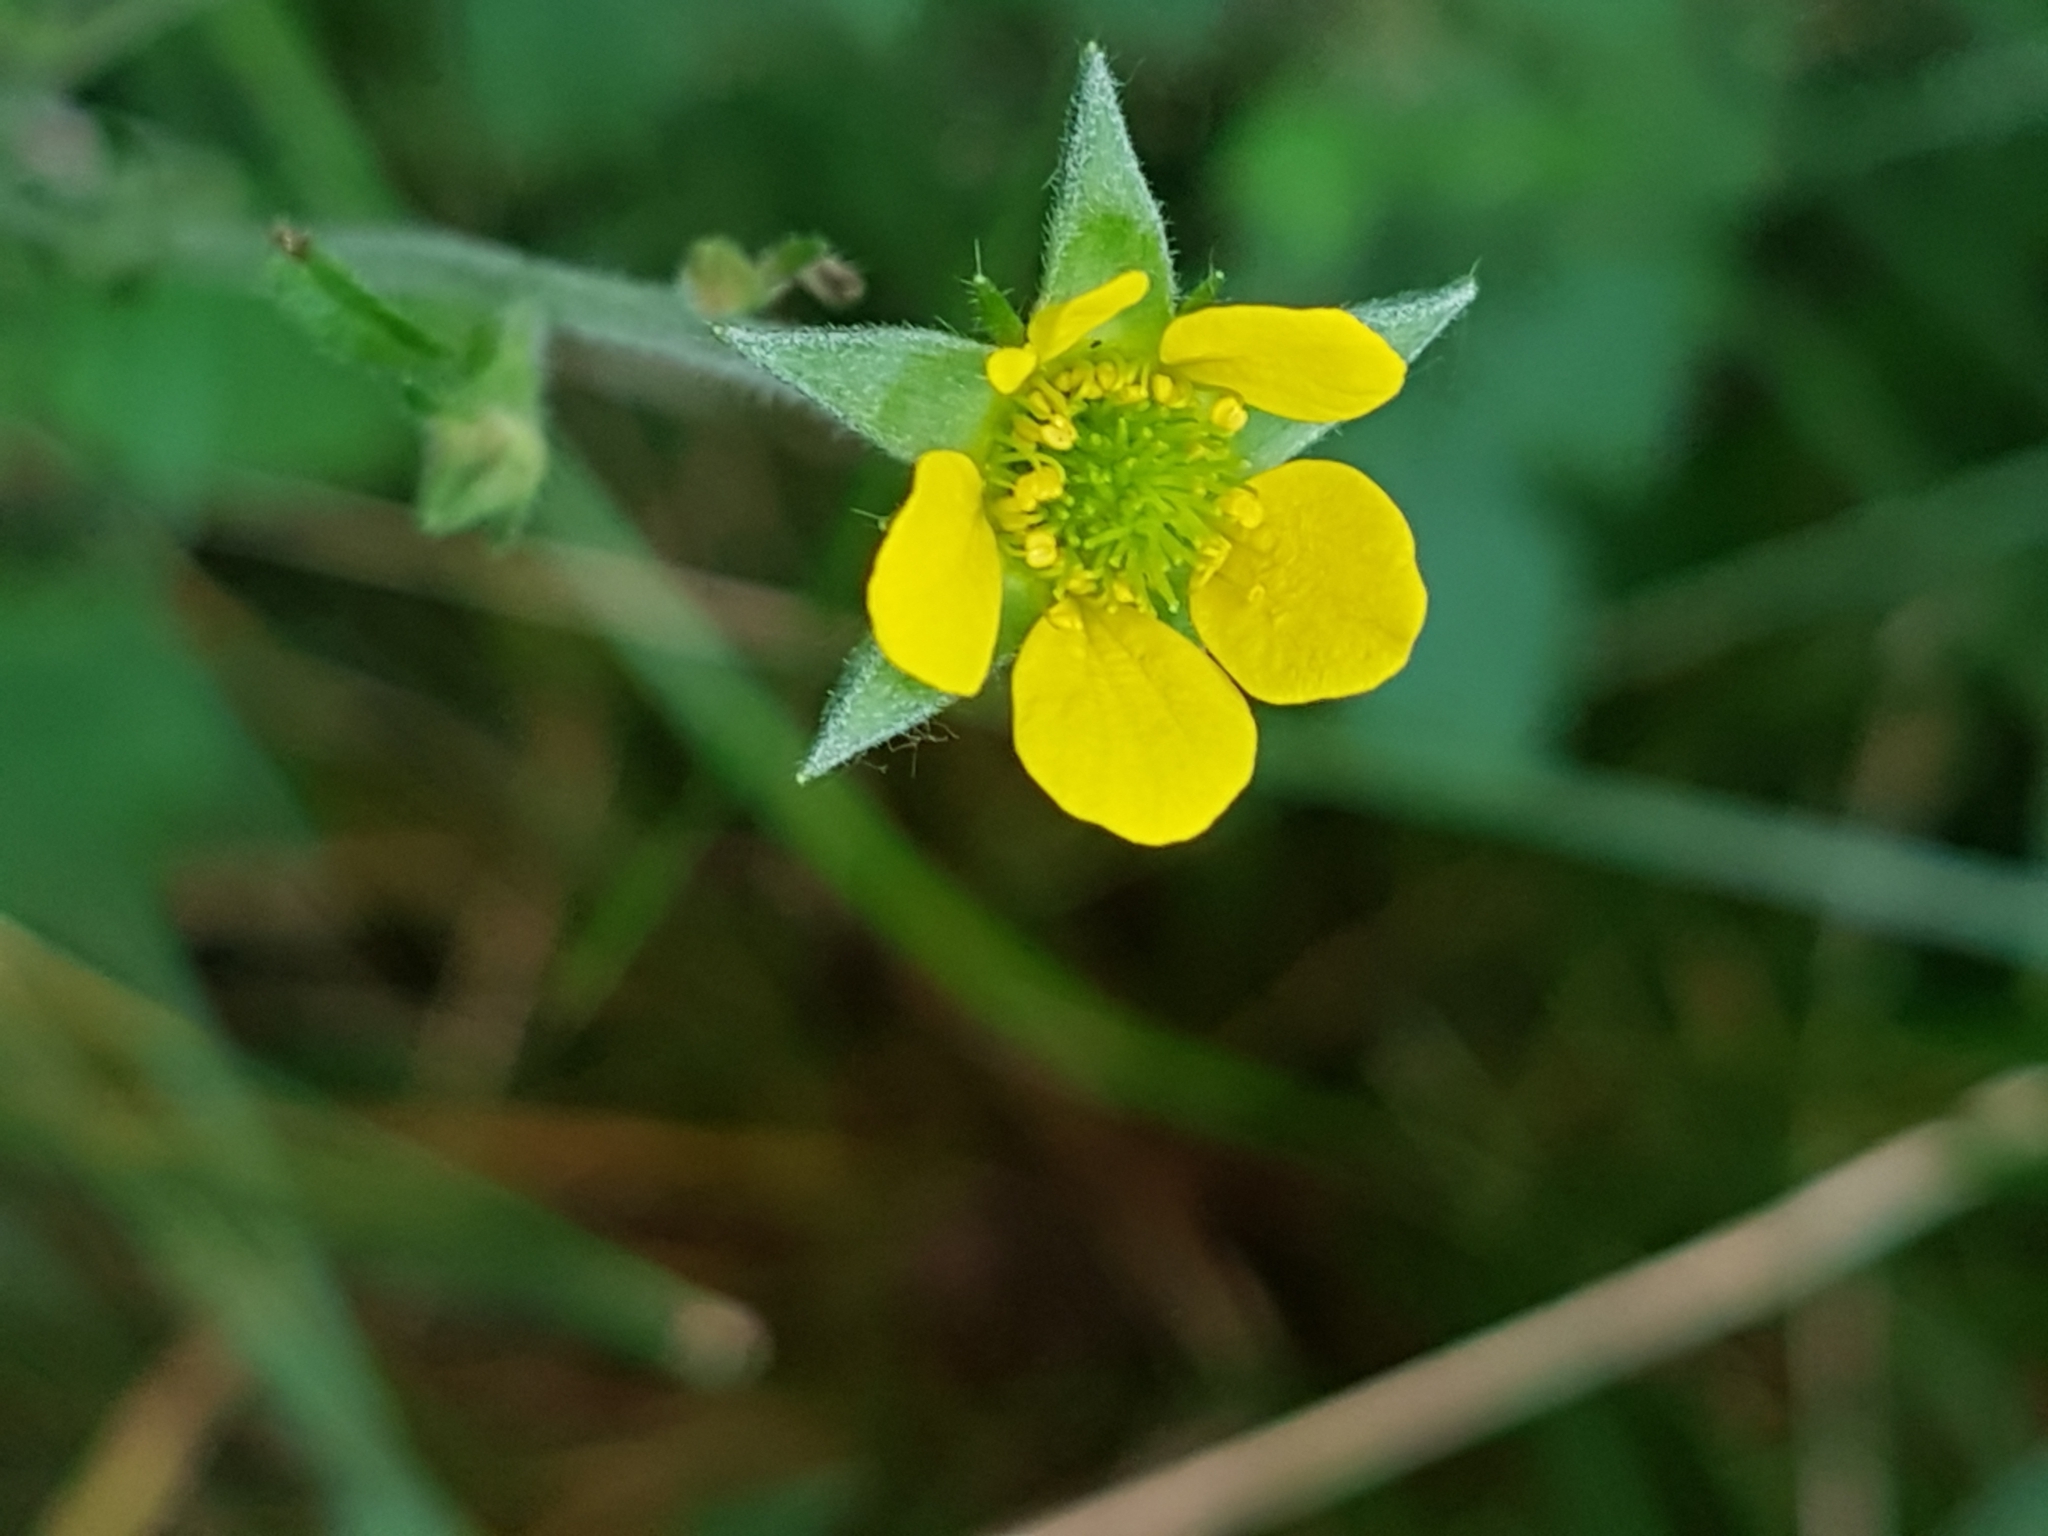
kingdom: Plantae
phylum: Tracheophyta
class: Magnoliopsida
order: Rosales
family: Rosaceae
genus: Geum
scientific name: Geum urbanum
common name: Wood avens
